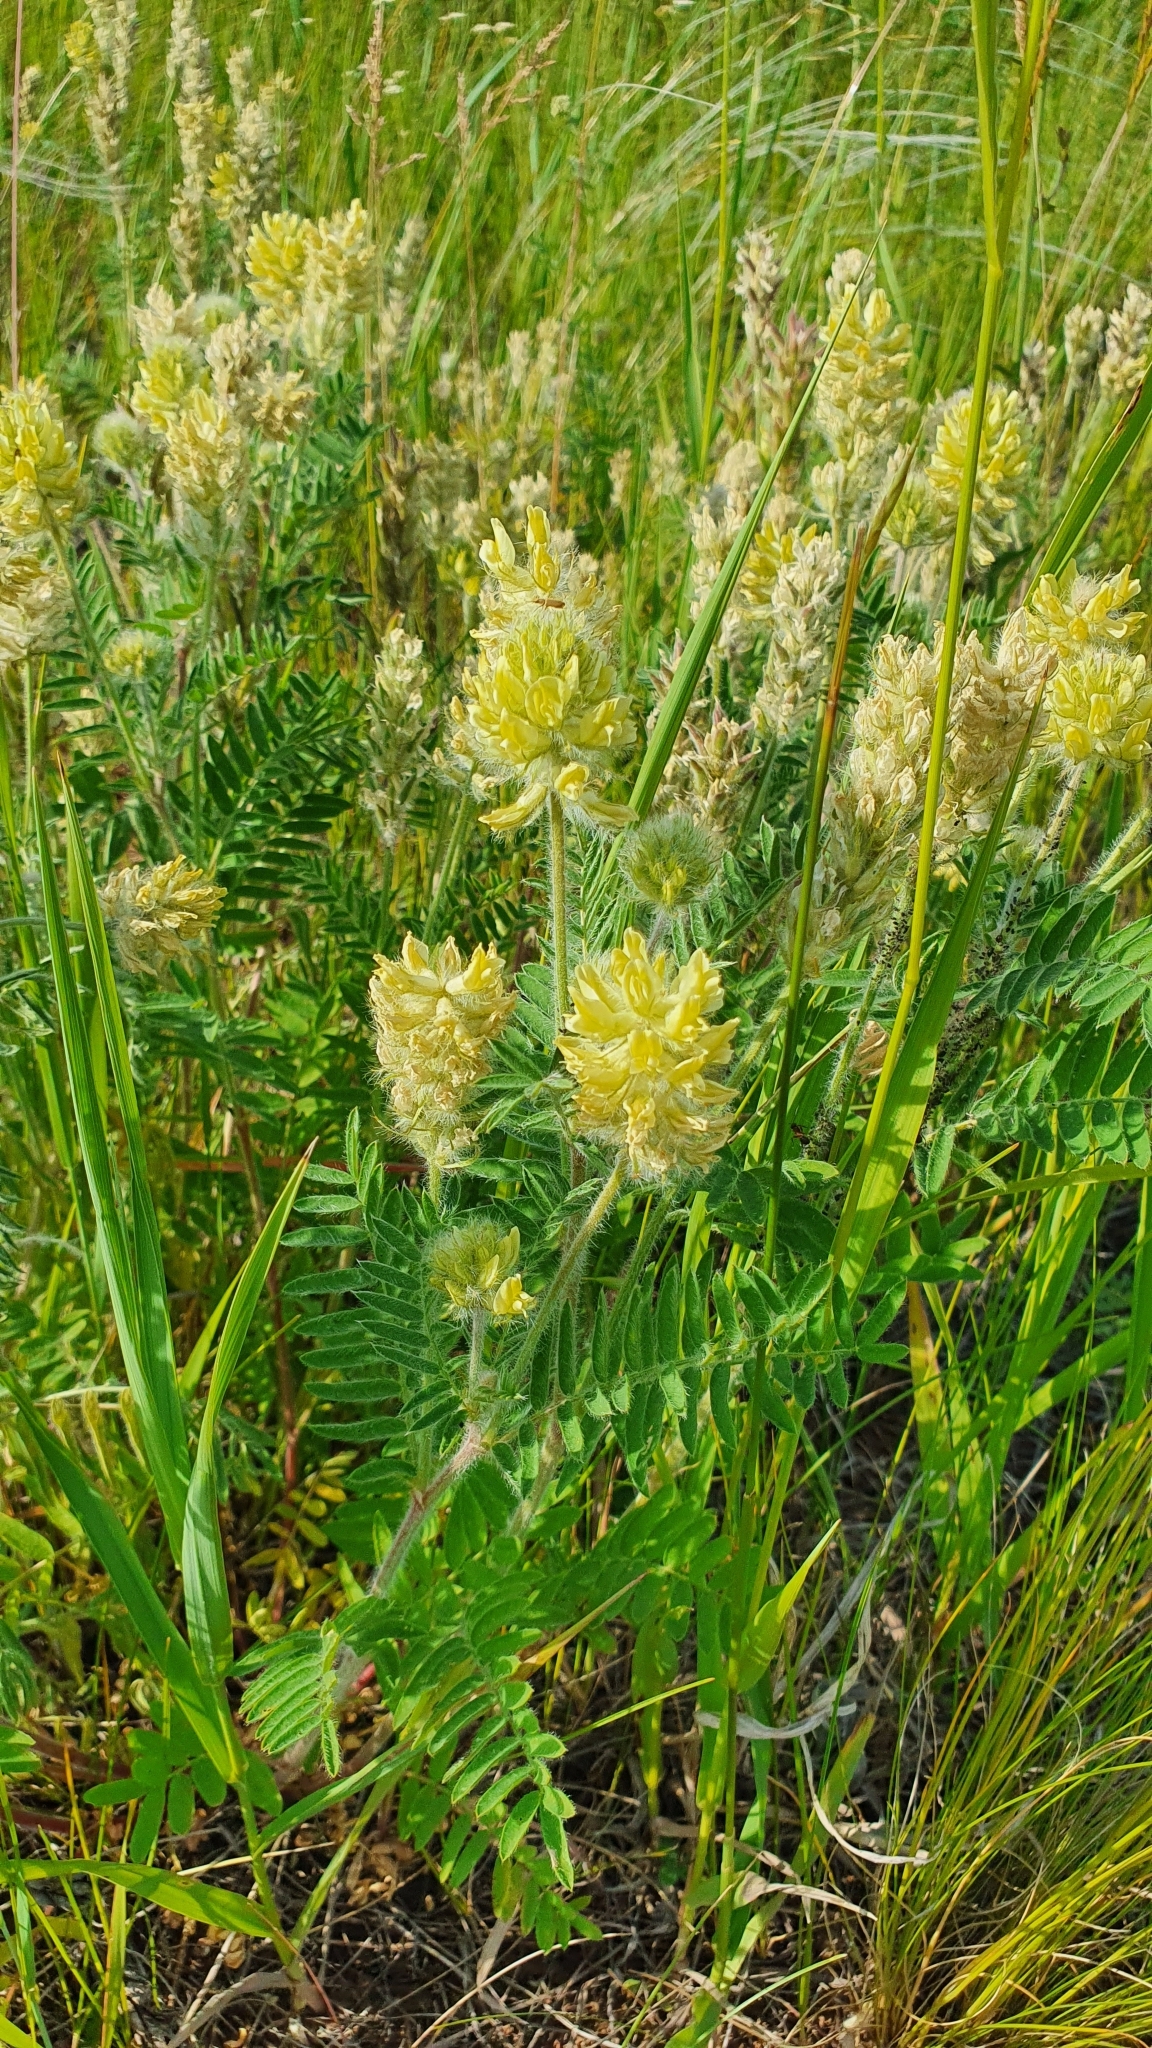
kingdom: Plantae
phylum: Tracheophyta
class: Magnoliopsida
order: Fabales
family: Fabaceae
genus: Oxytropis
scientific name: Oxytropis pilosa
